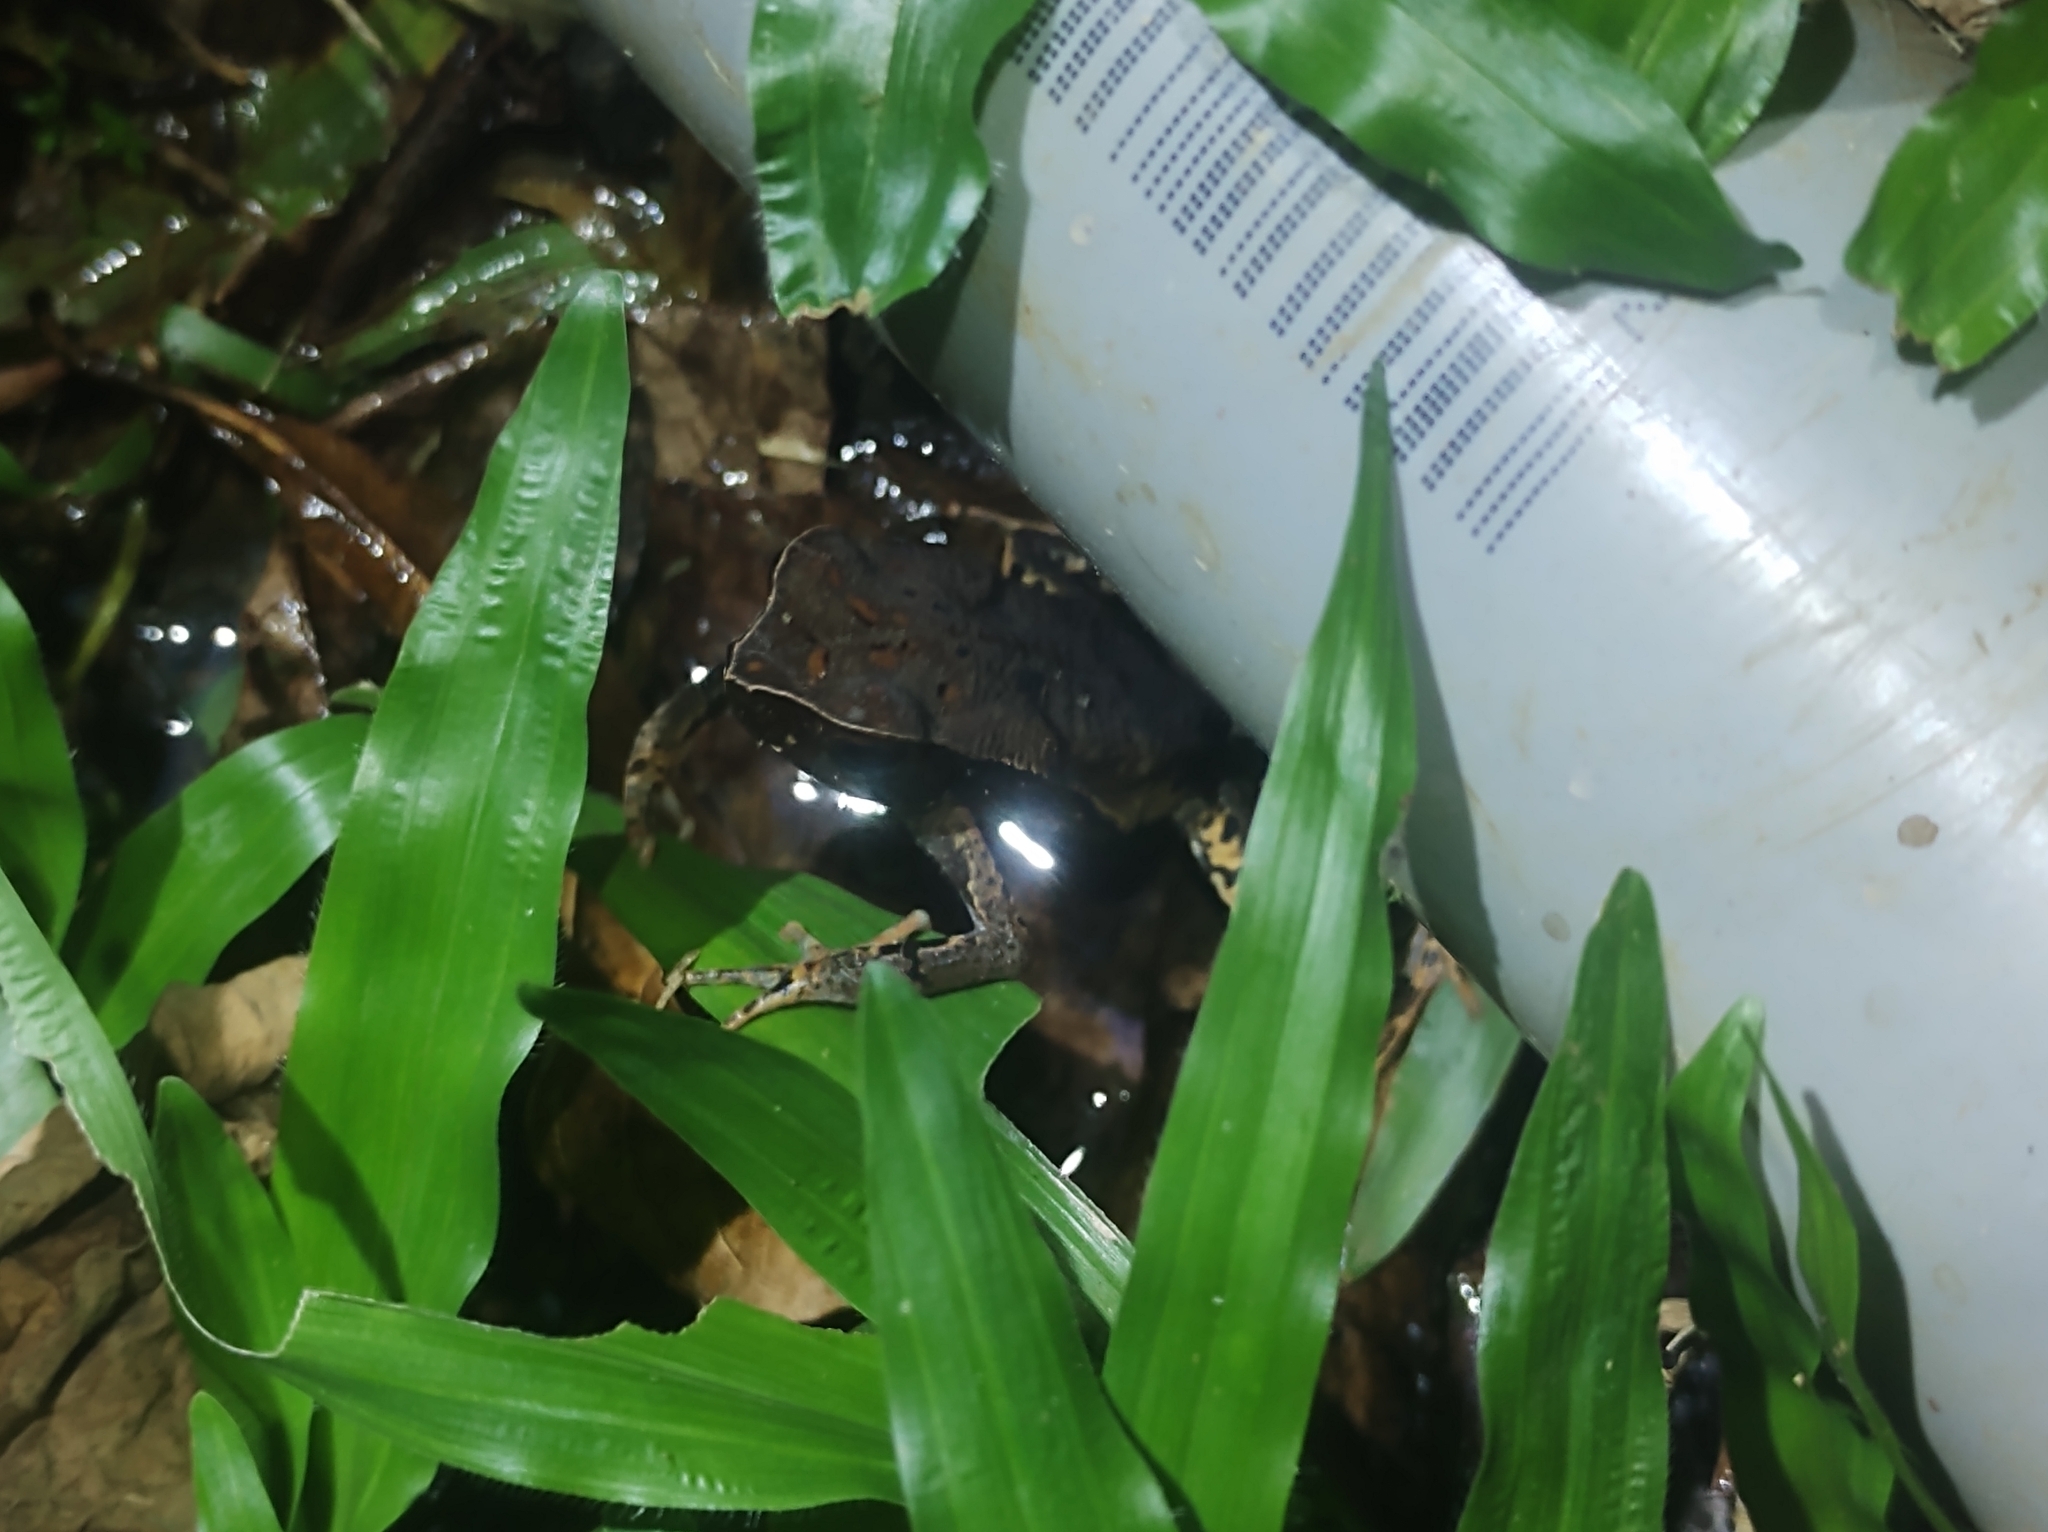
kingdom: Animalia
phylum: Chordata
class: Amphibia
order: Anura
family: Bufonidae
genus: Rhaebo
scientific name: Rhaebo haematiticus
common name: Truando toad
